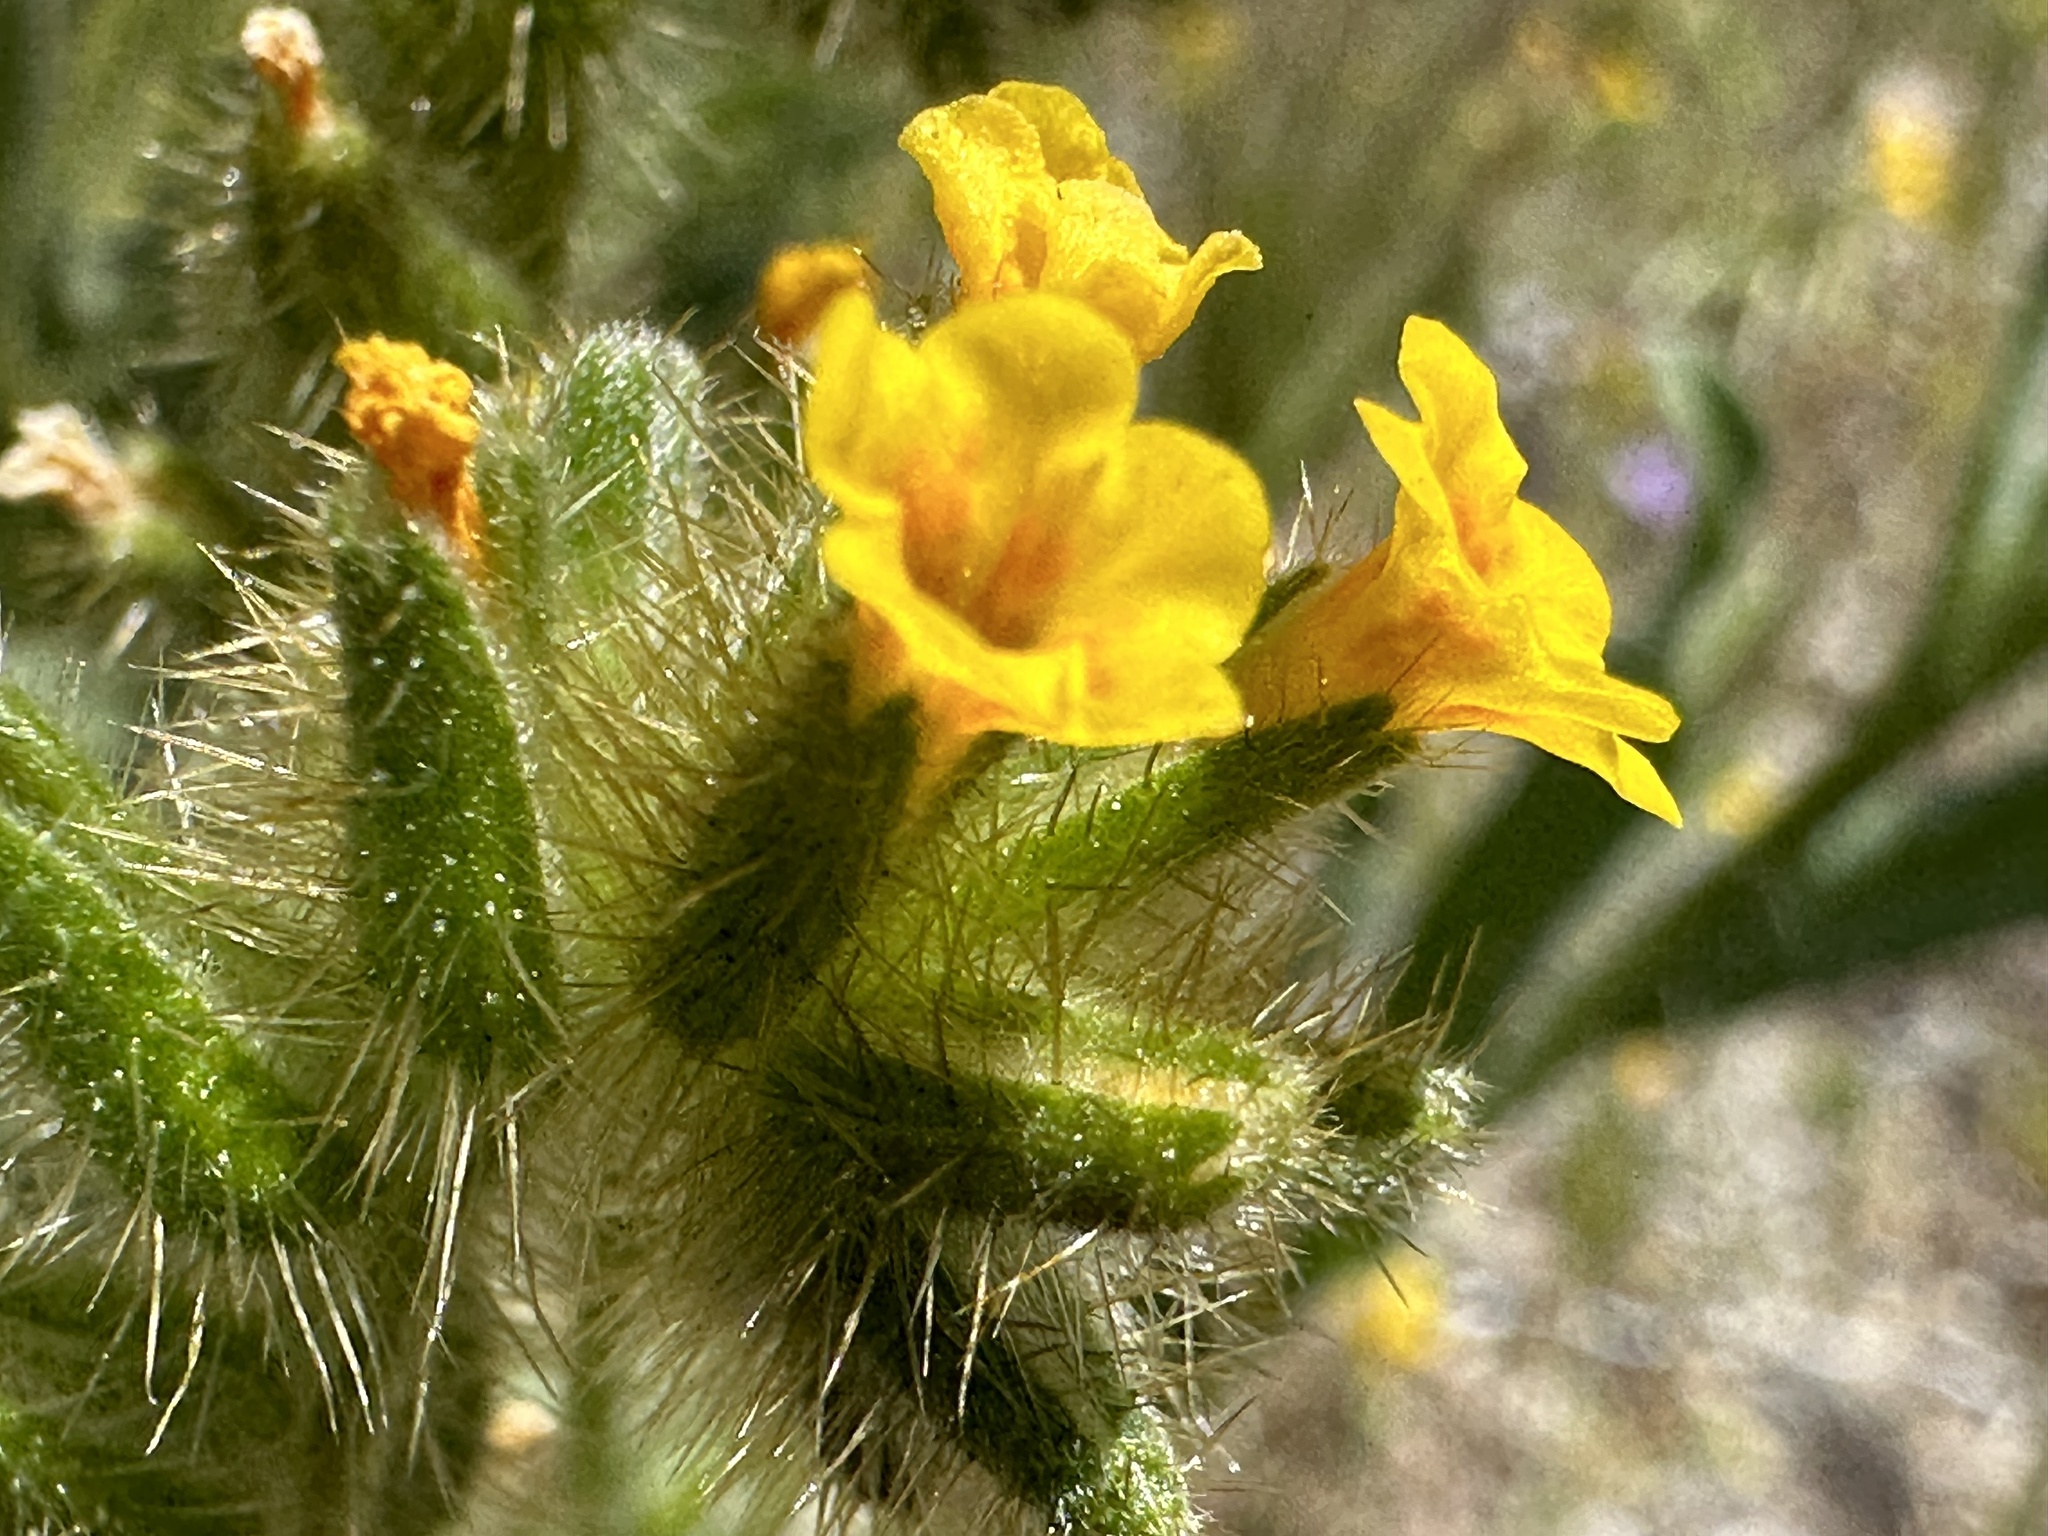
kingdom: Plantae
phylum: Tracheophyta
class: Magnoliopsida
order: Boraginales
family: Boraginaceae
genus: Amsinckia
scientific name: Amsinckia tessellata
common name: Tessellate fiddleneck
